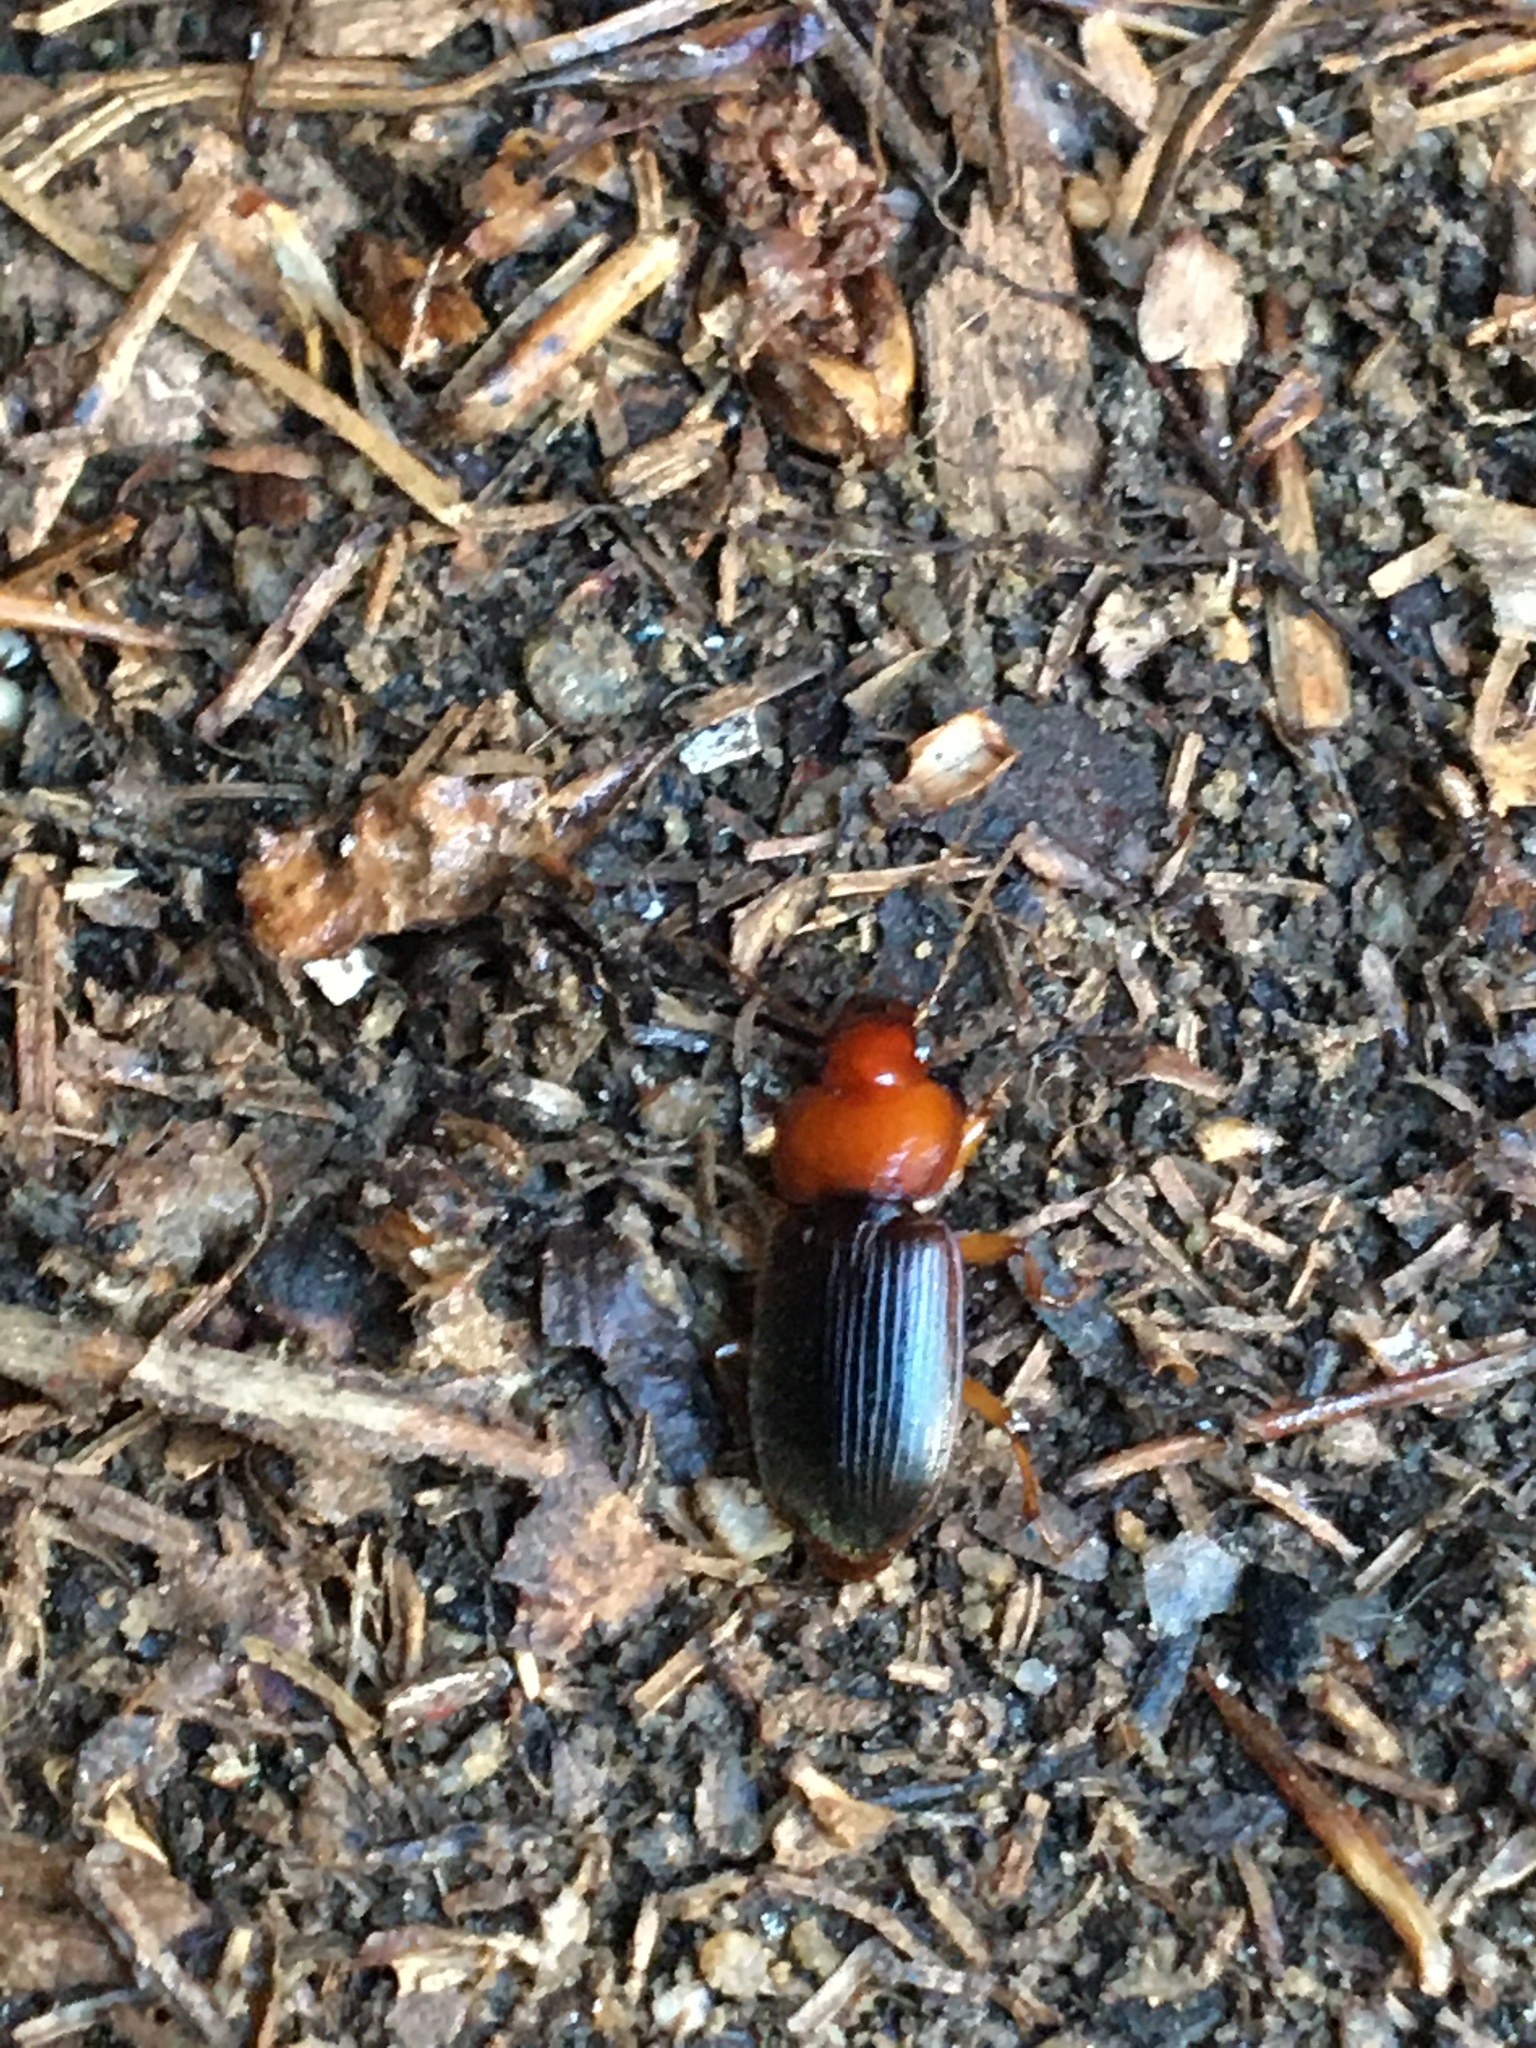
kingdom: Animalia
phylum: Arthropoda
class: Insecta
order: Coleoptera
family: Carabidae
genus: Amphasia
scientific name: Amphasia interstitialis
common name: Red-headed ground beetle
